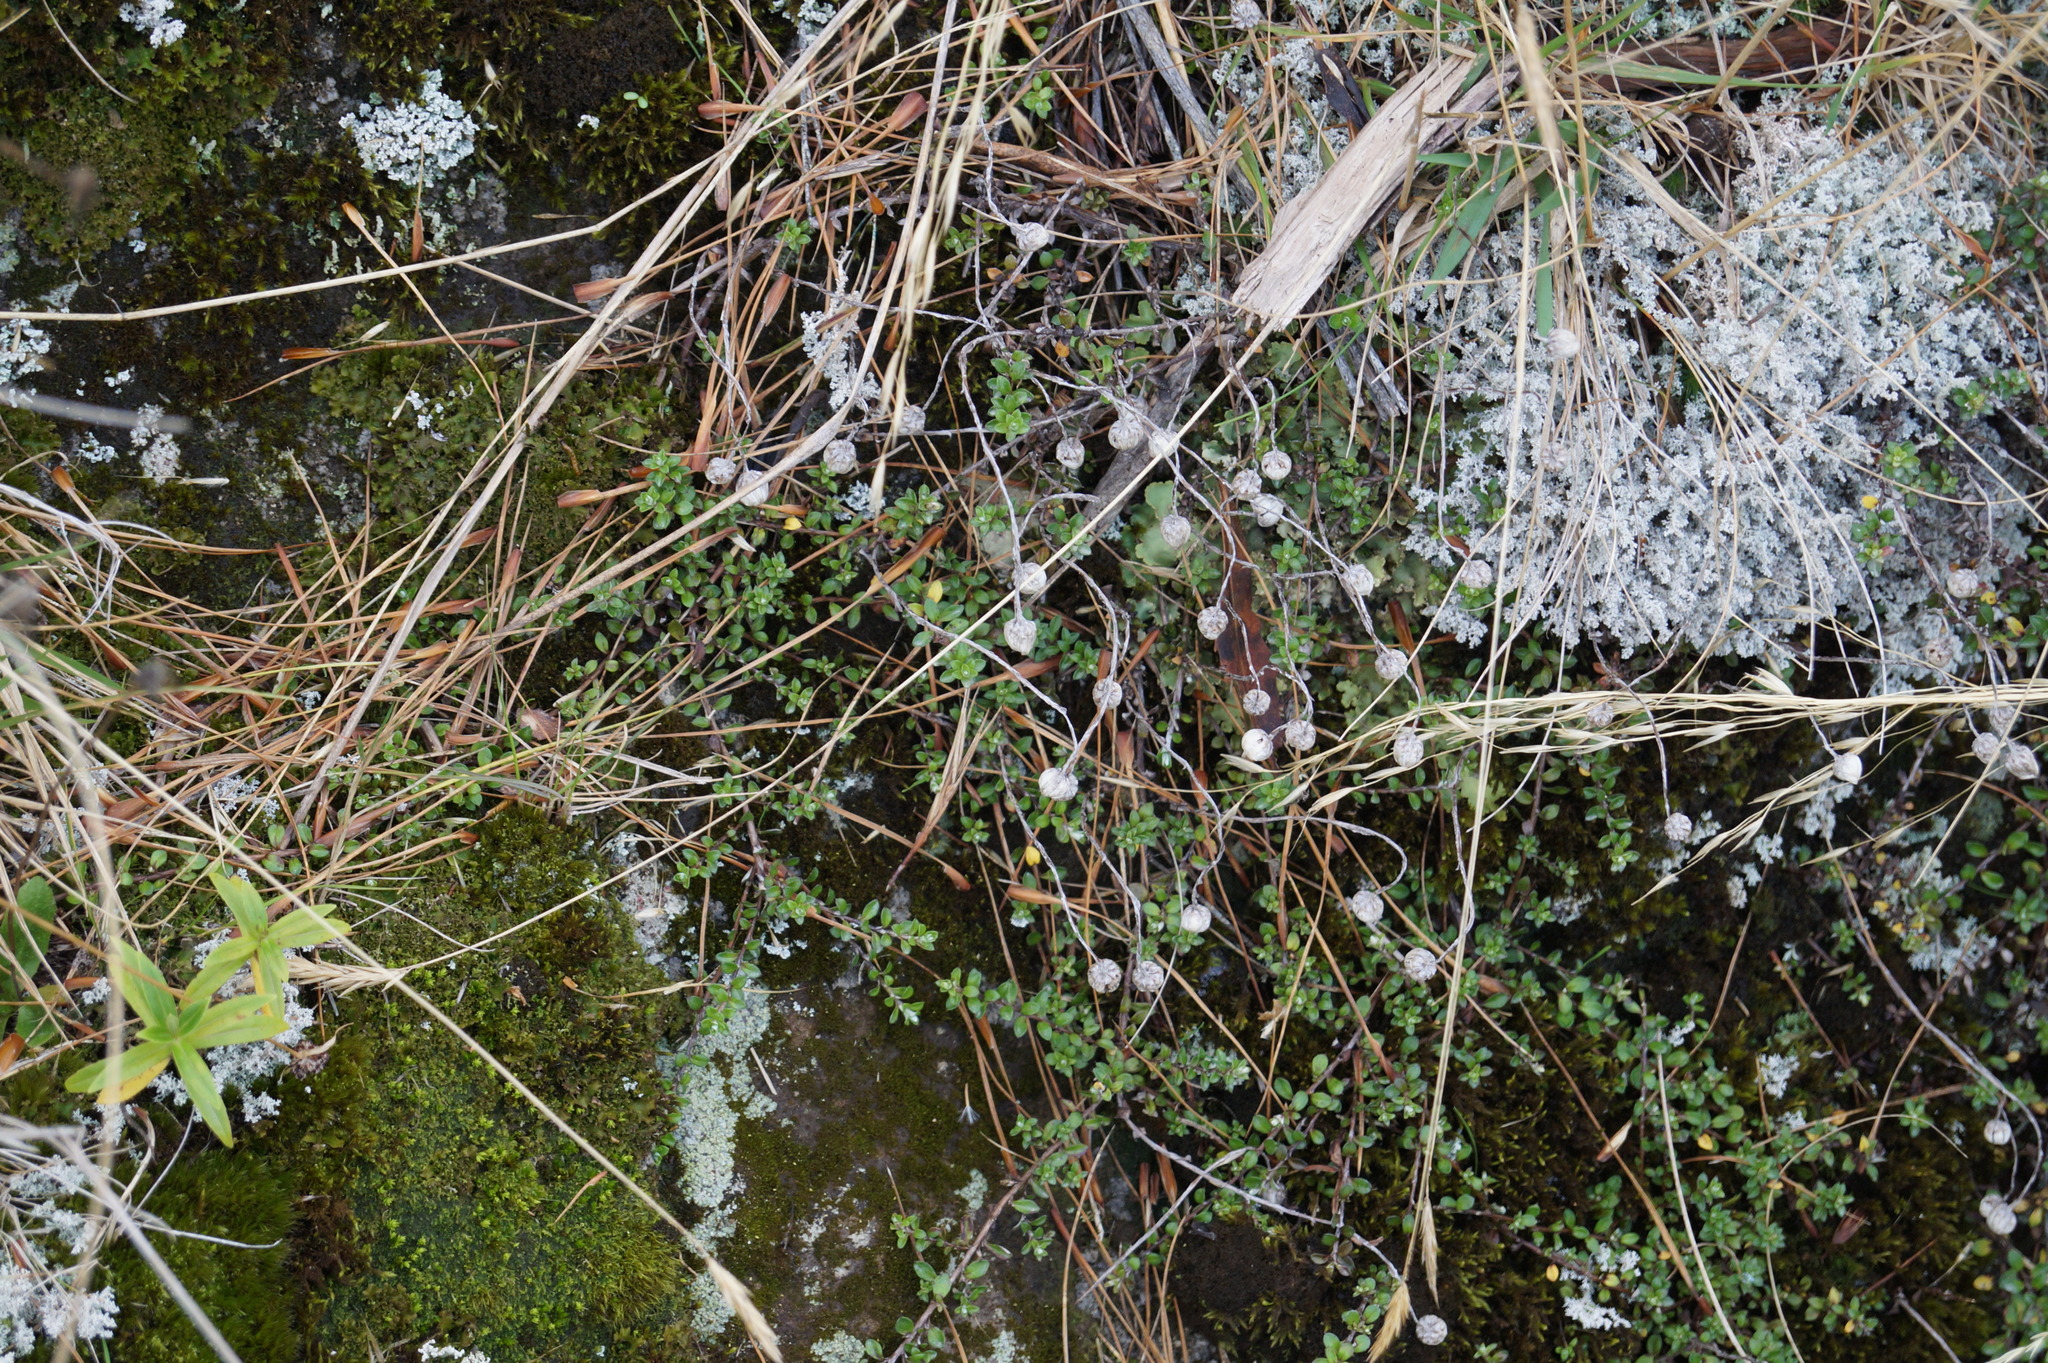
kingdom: Plantae
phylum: Tracheophyta
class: Magnoliopsida
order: Asterales
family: Asteraceae
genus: Anaphalioides
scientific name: Anaphalioides bellidioides
